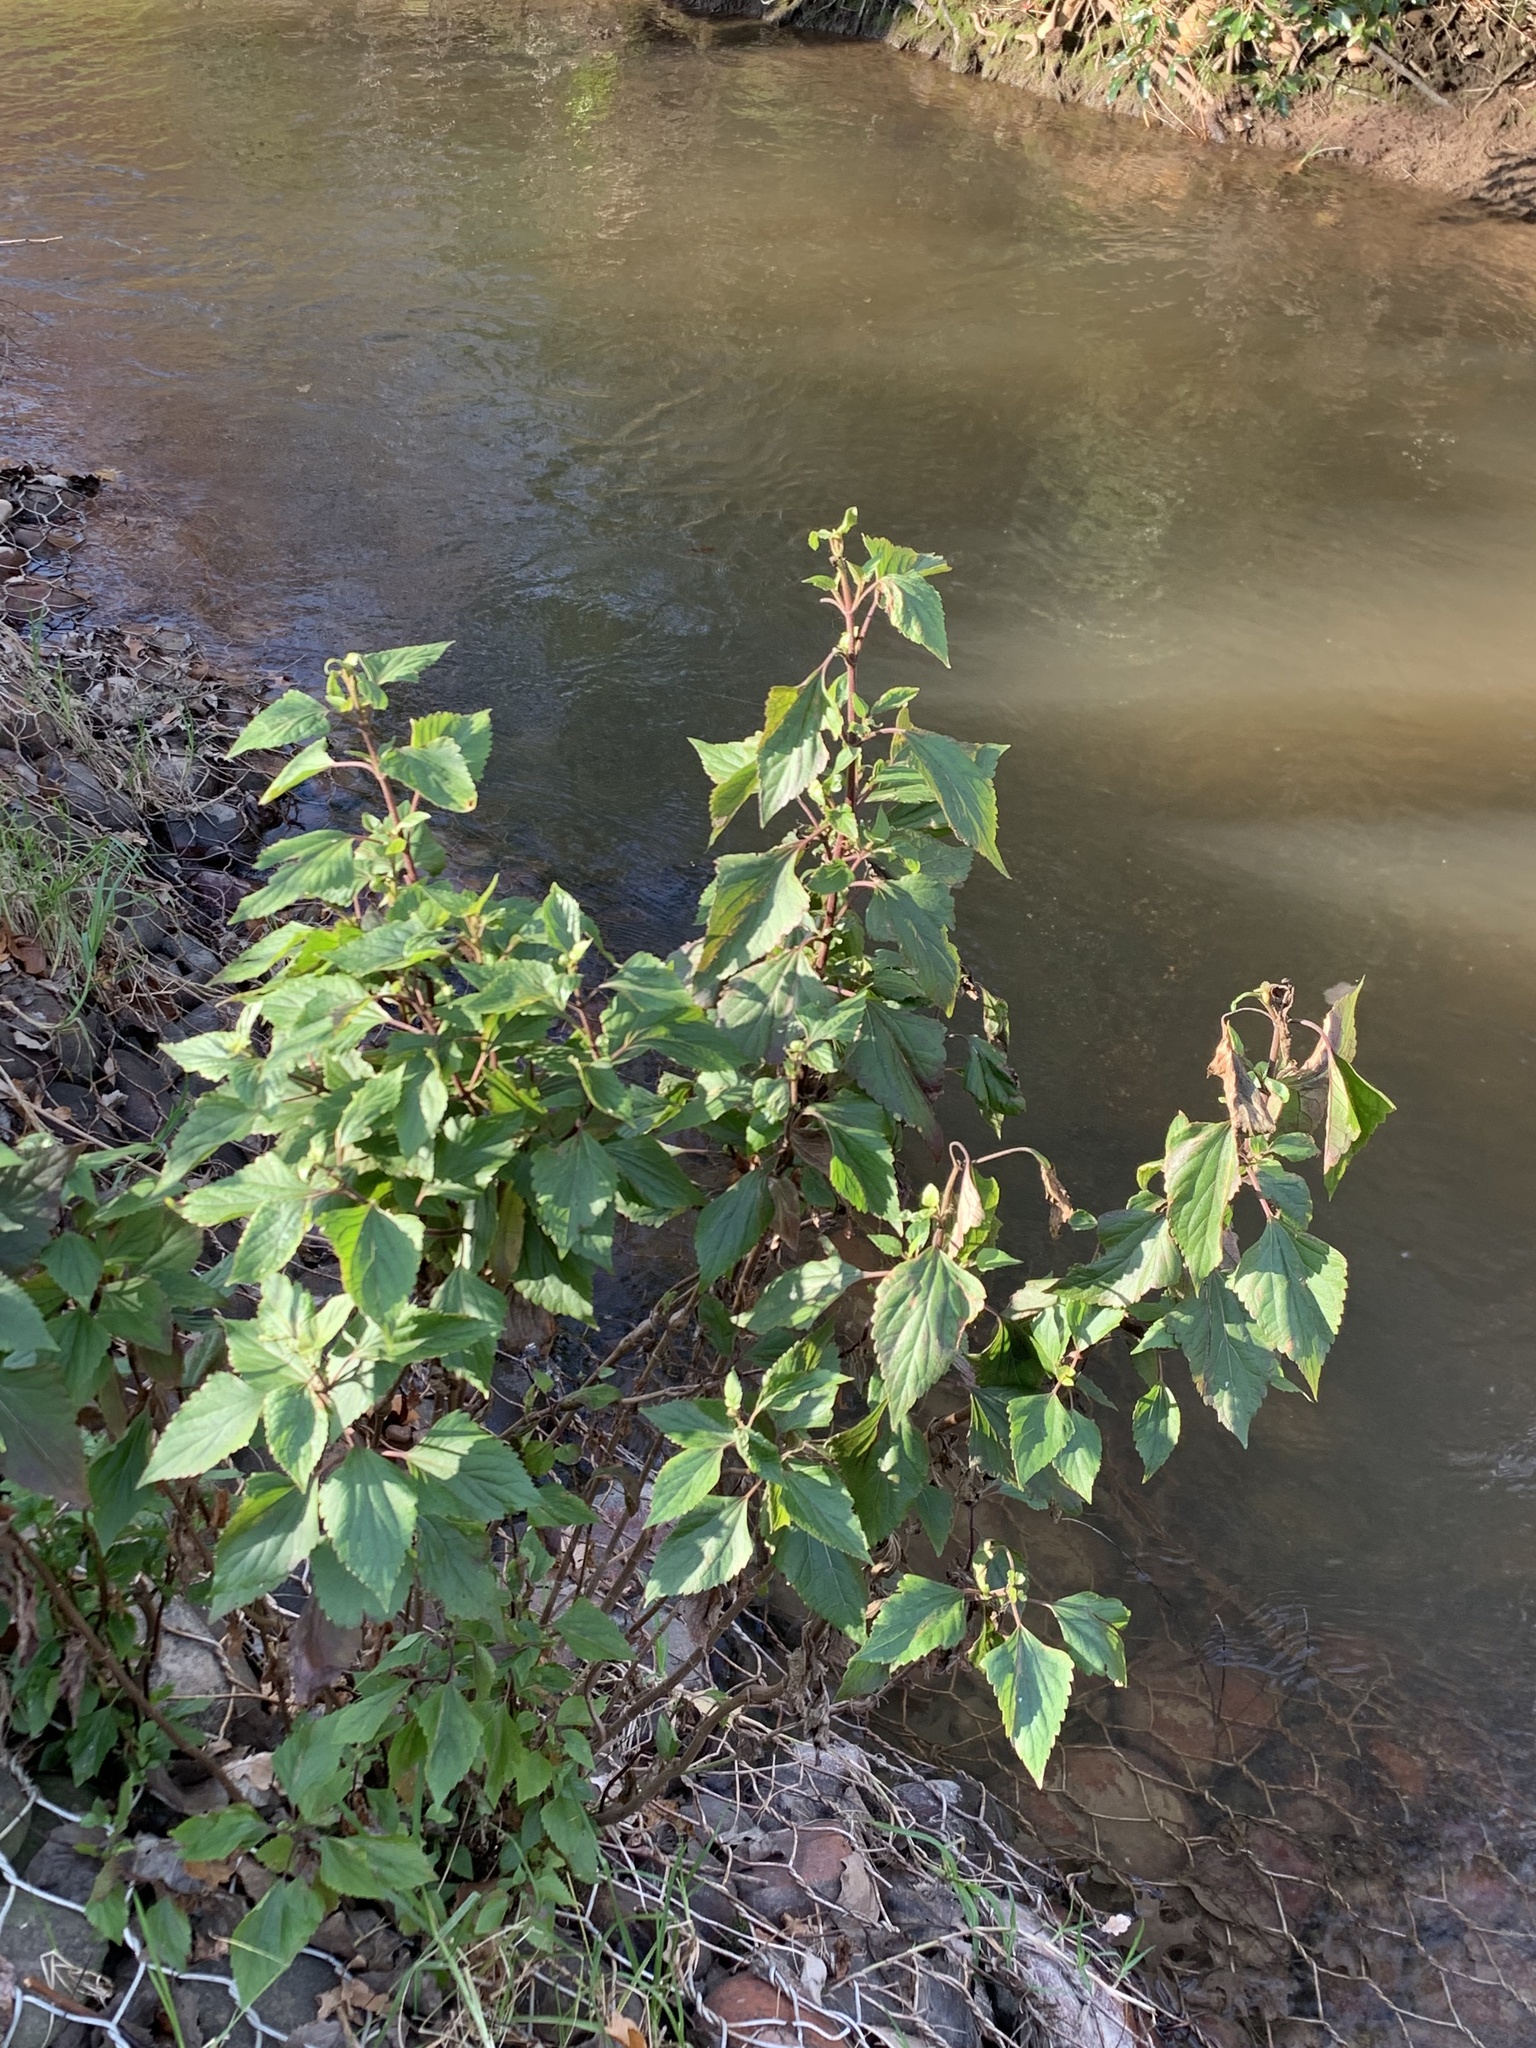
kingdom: Plantae
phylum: Tracheophyta
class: Magnoliopsida
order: Asterales
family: Asteraceae
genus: Ageratina
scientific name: Ageratina adenophora
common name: Sticky snakeroot
